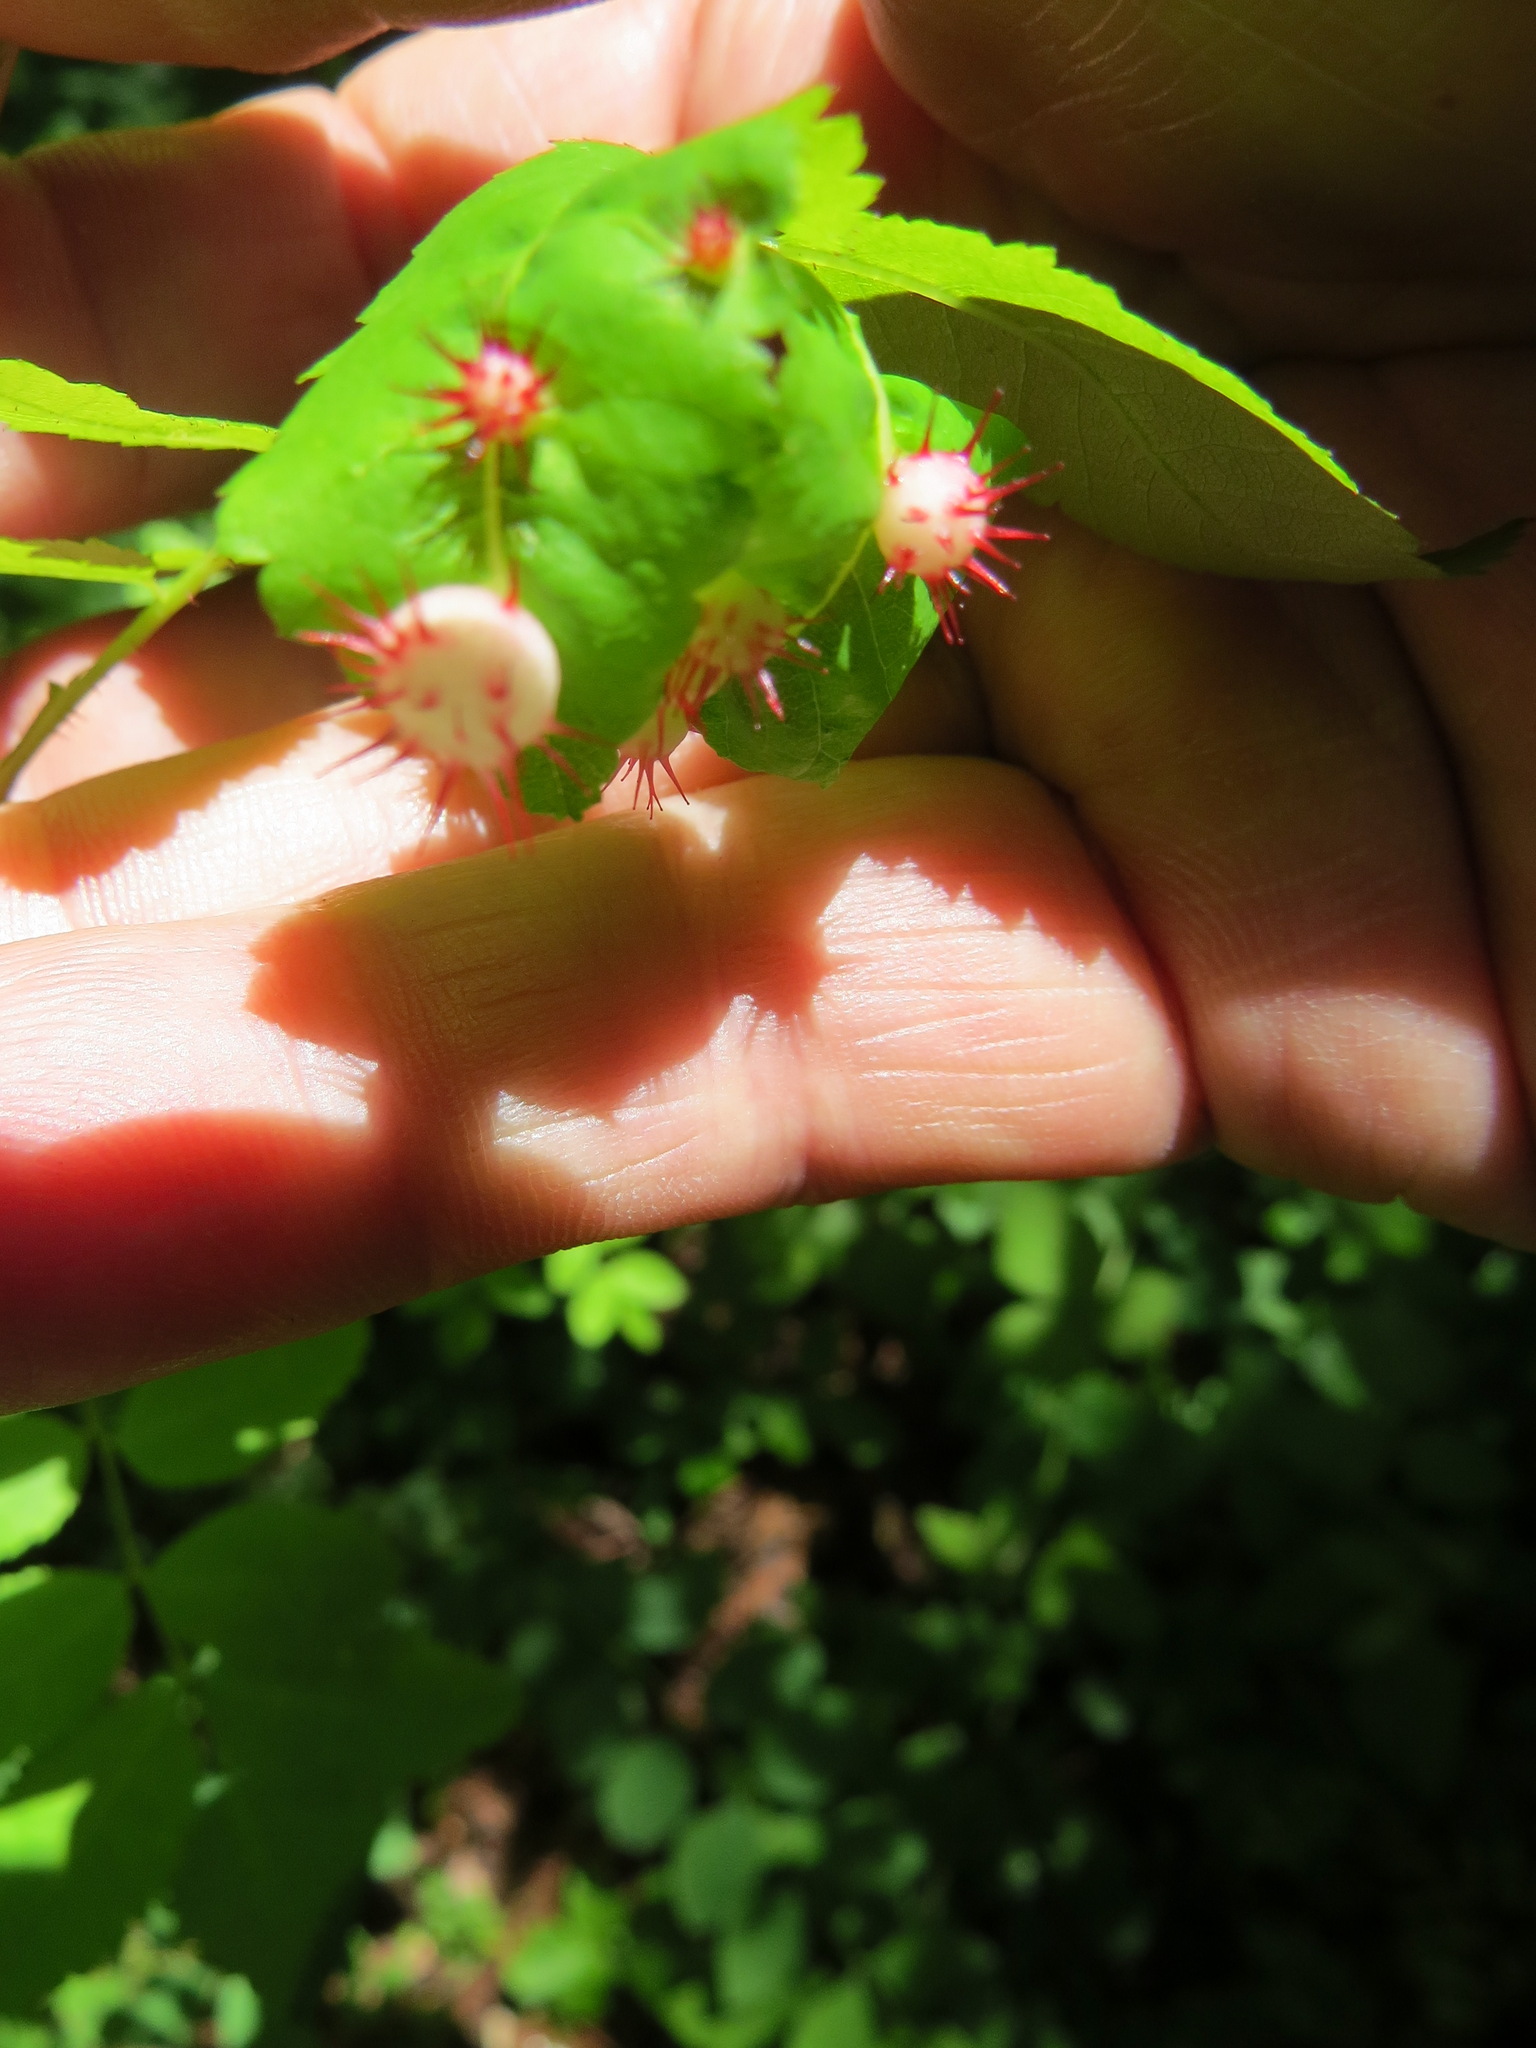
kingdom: Animalia
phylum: Arthropoda
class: Insecta
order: Hymenoptera
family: Cynipidae
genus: Diplolepis
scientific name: Diplolepis polita
